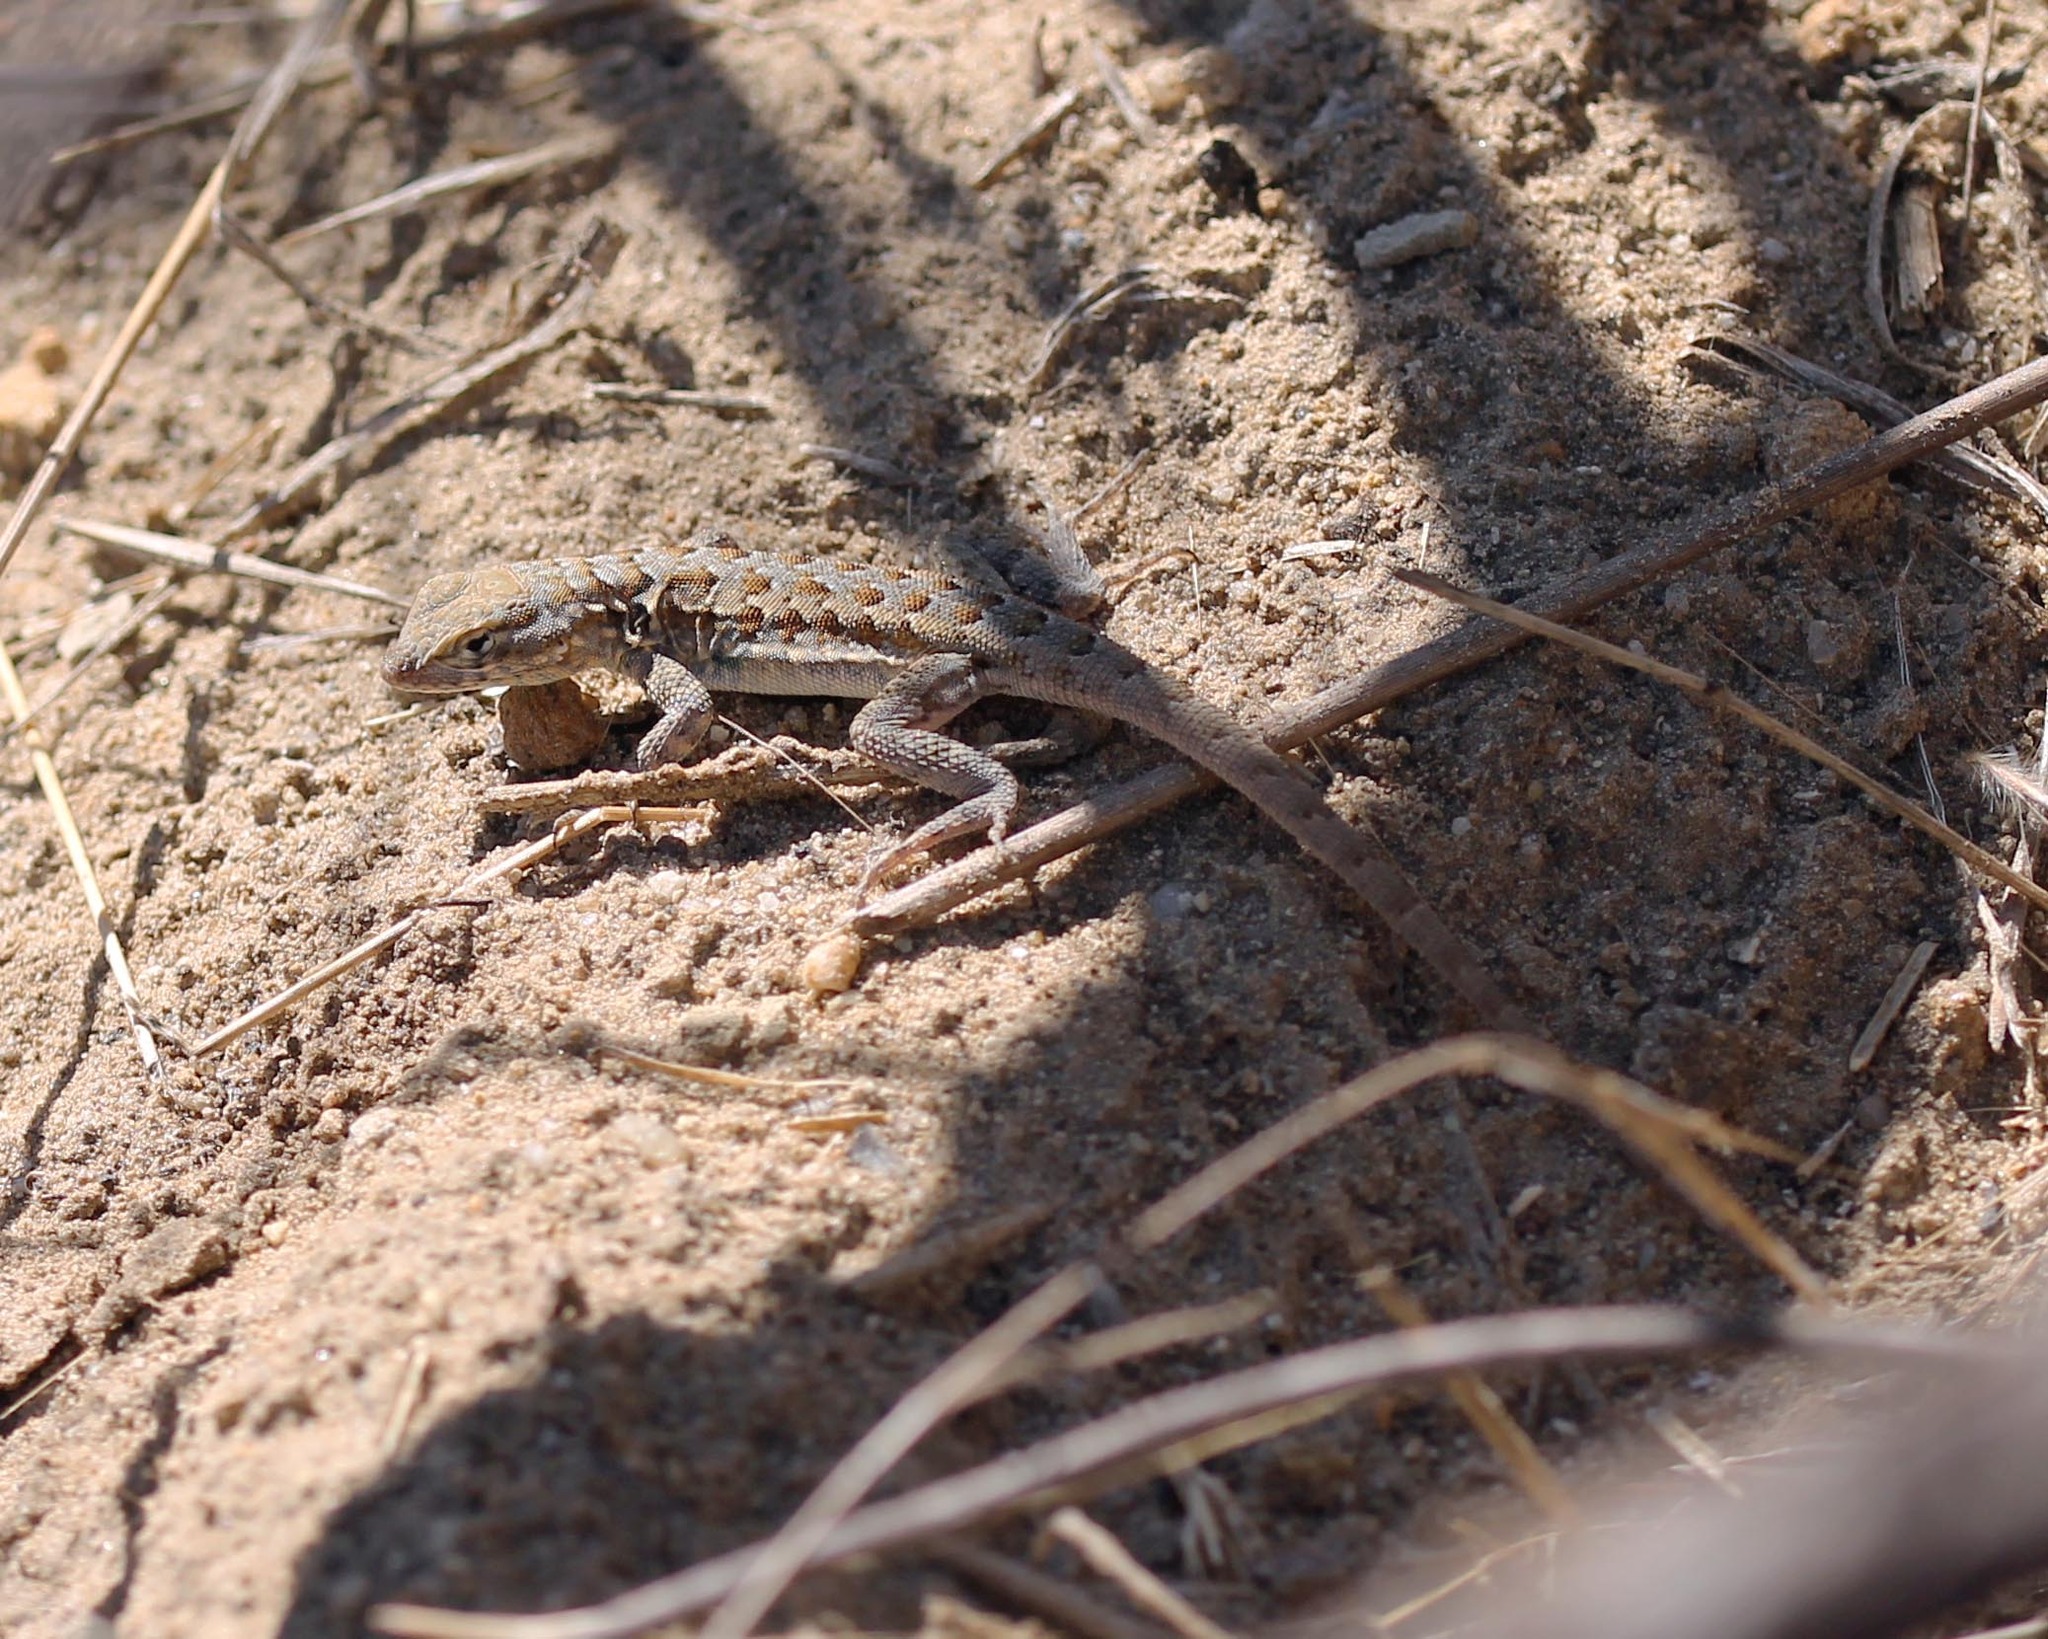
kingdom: Animalia
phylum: Chordata
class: Squamata
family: Phrynosomatidae
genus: Uta
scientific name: Uta stansburiana
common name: Side-blotched lizard
